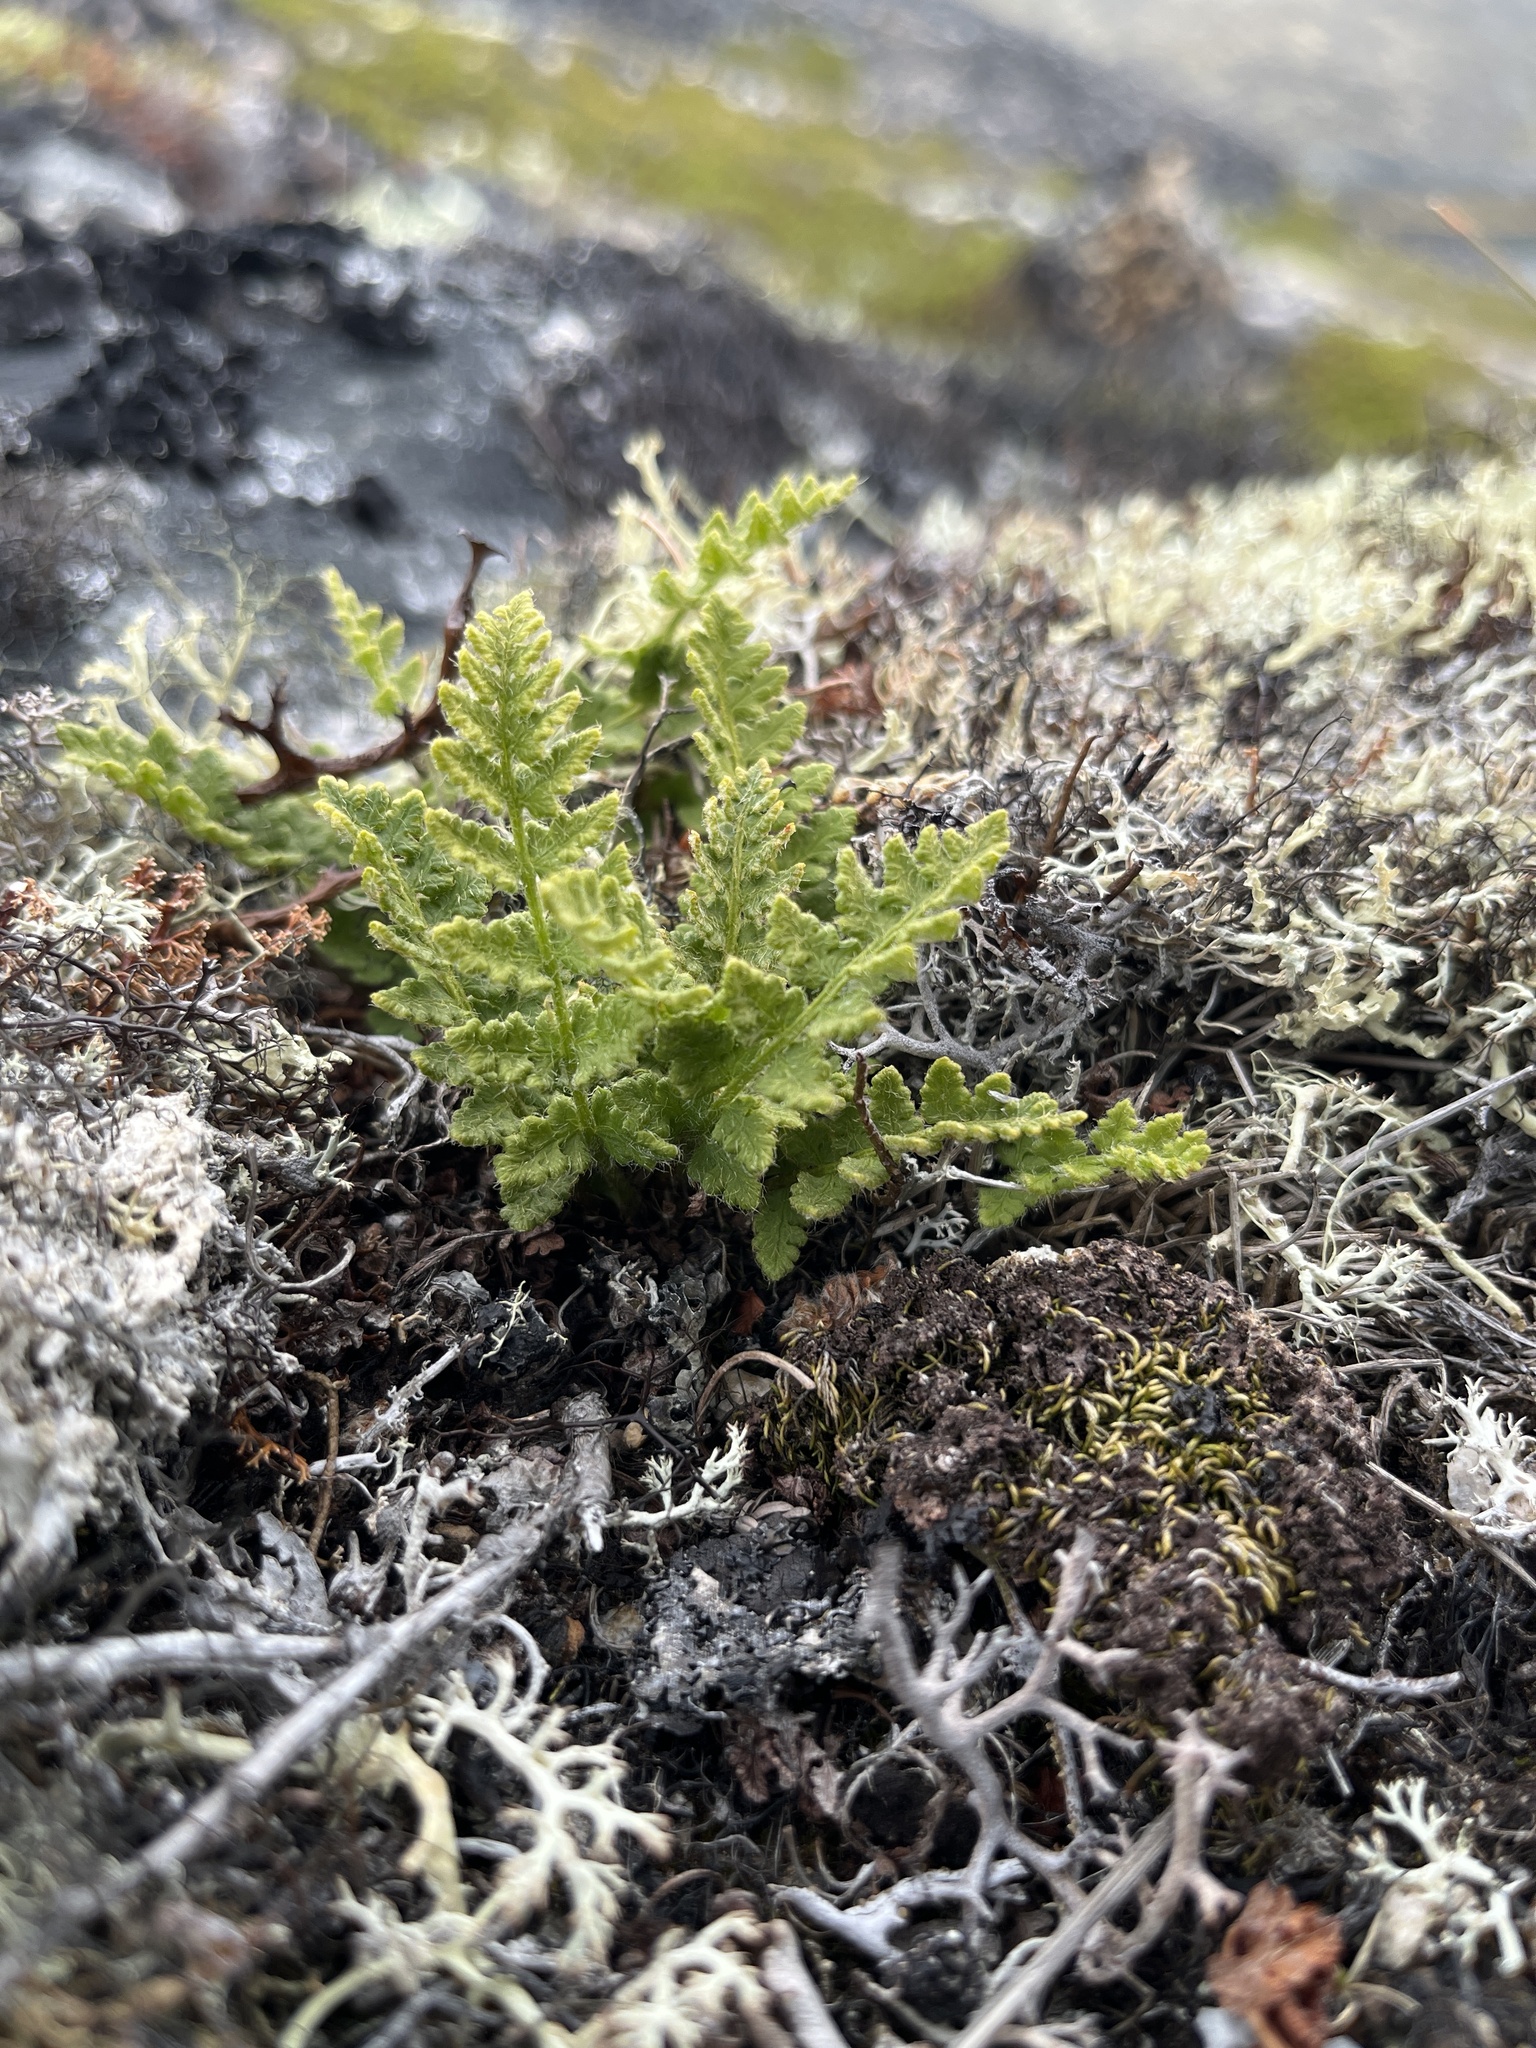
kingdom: Plantae
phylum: Tracheophyta
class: Polypodiopsida
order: Polypodiales
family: Woodsiaceae
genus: Woodsia
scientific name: Woodsia ilvensis
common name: Fragrant woodsia
